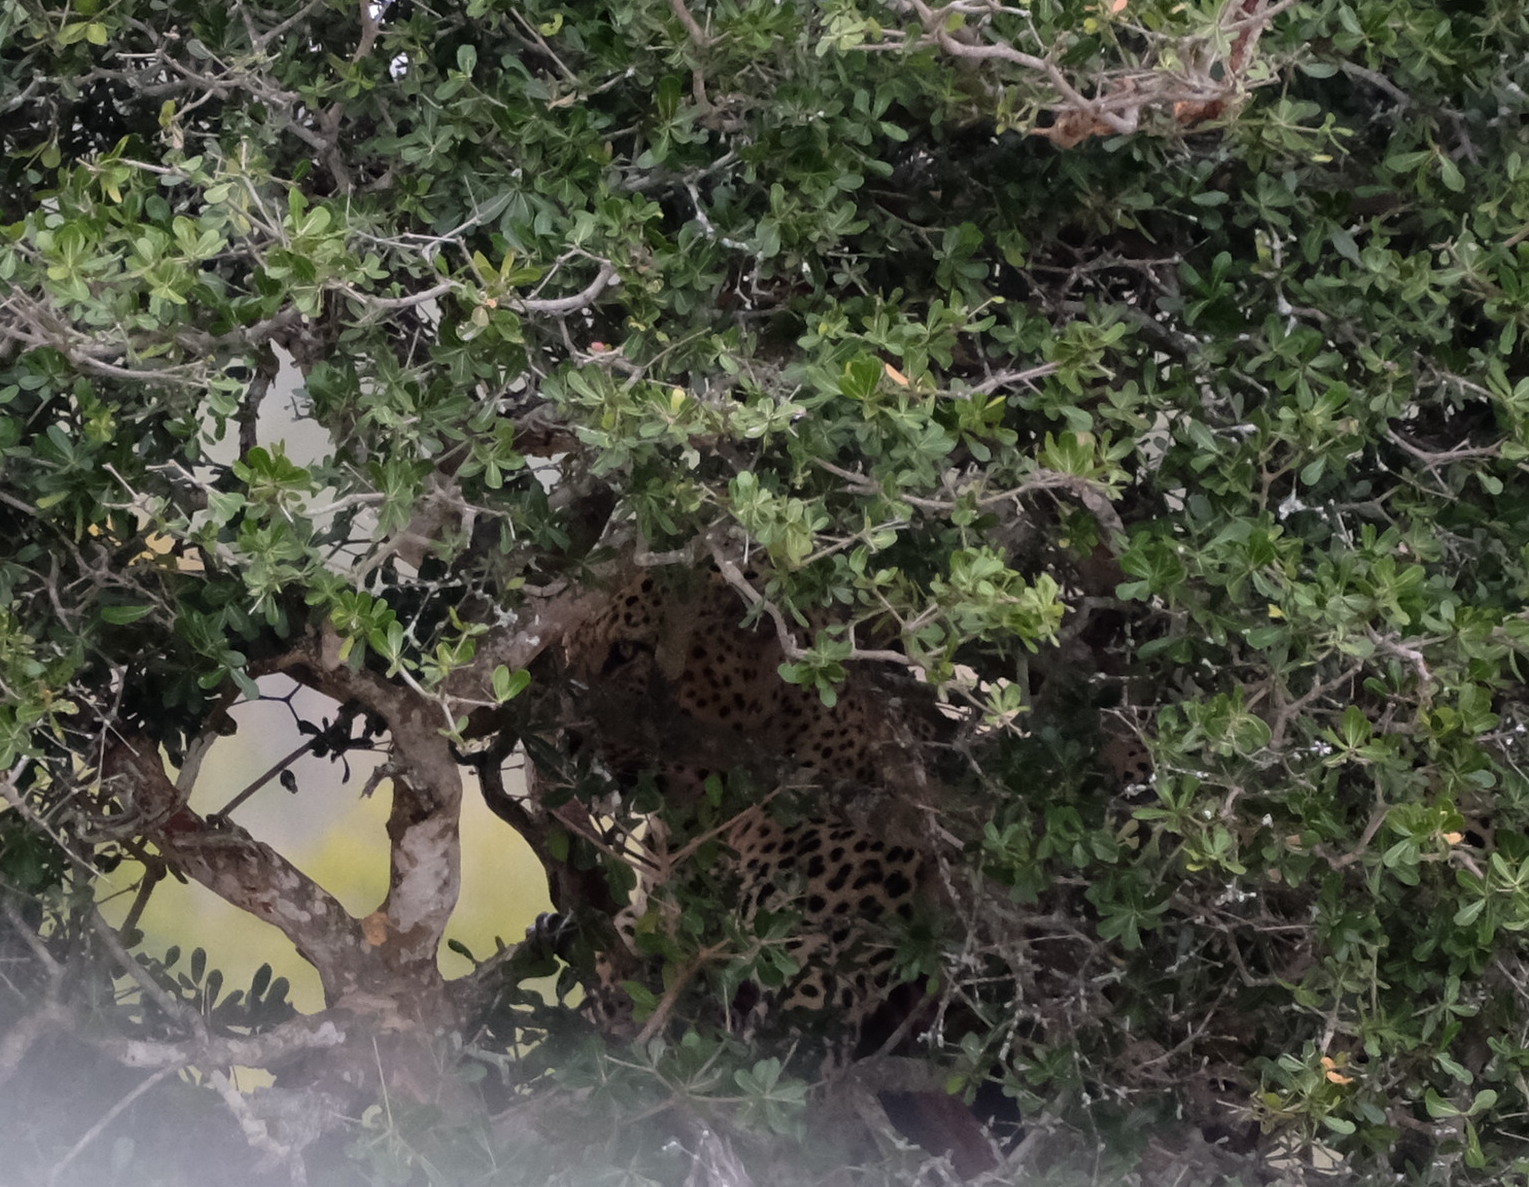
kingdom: Animalia
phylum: Chordata
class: Mammalia
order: Carnivora
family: Felidae
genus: Panthera
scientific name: Panthera pardus
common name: Leopard
